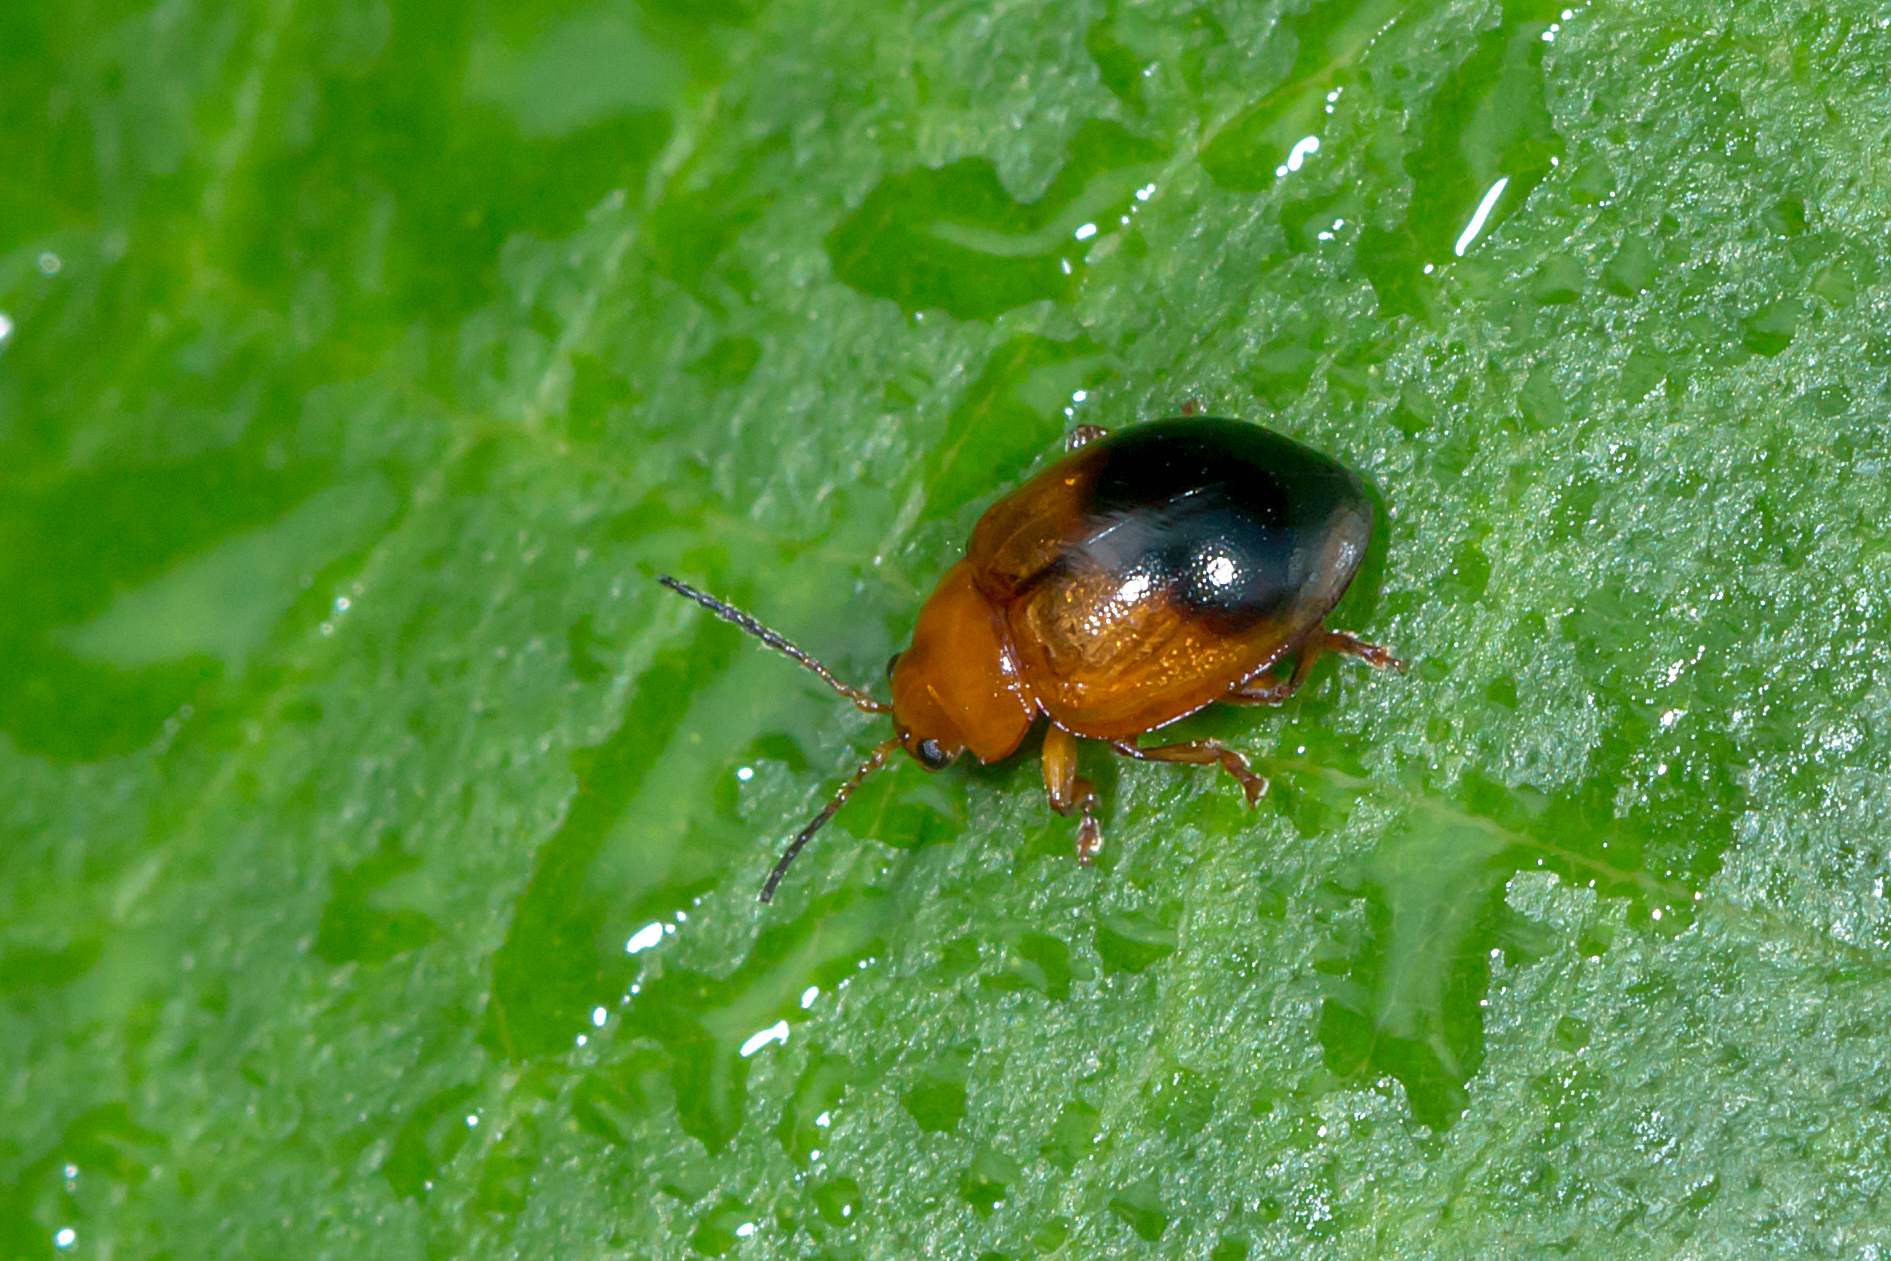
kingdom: Animalia
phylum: Arthropoda
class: Insecta
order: Coleoptera
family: Chrysomelidae
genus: Nisotra
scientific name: Nisotra
